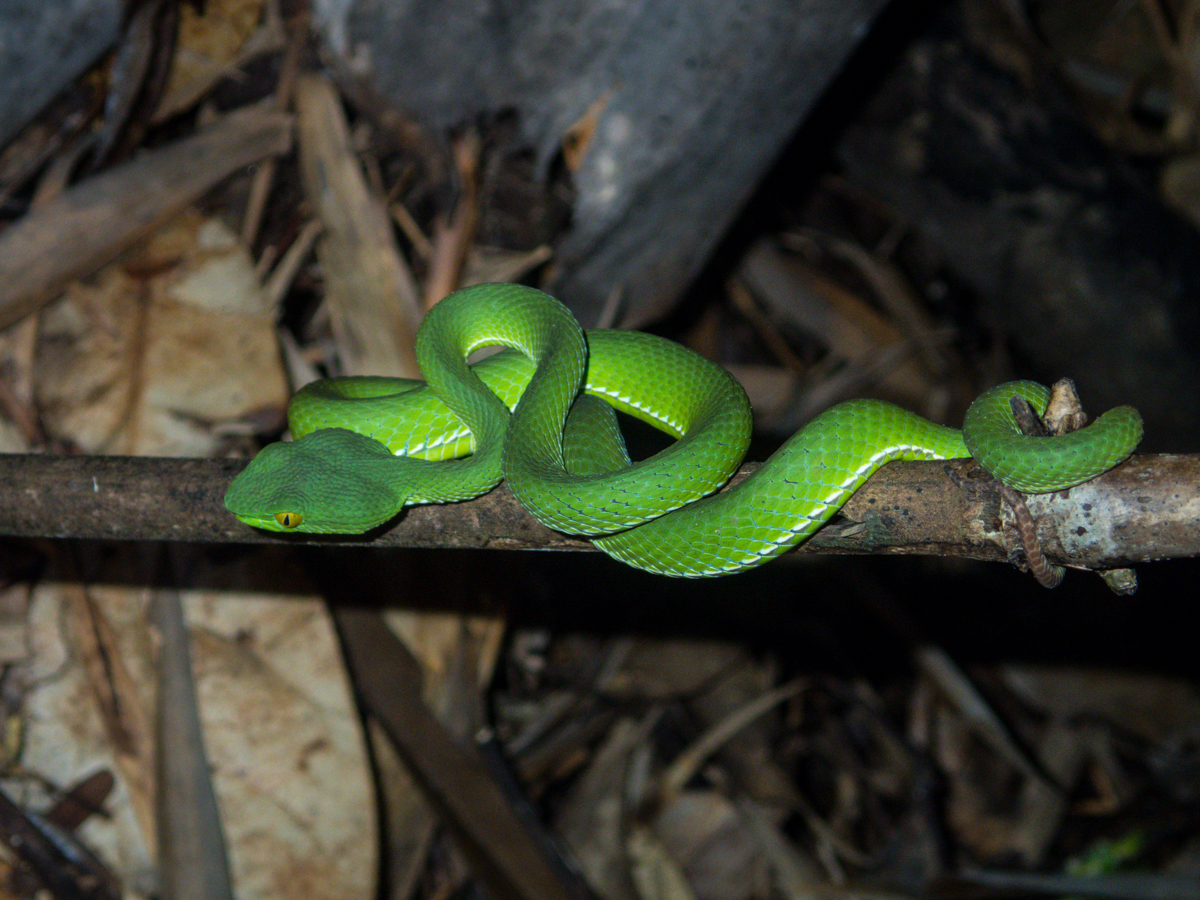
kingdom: Animalia
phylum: Chordata
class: Squamata
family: Viperidae
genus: Trimeresurus
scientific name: Trimeresurus cardamomensis
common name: Cardamom mountains green pitviper
